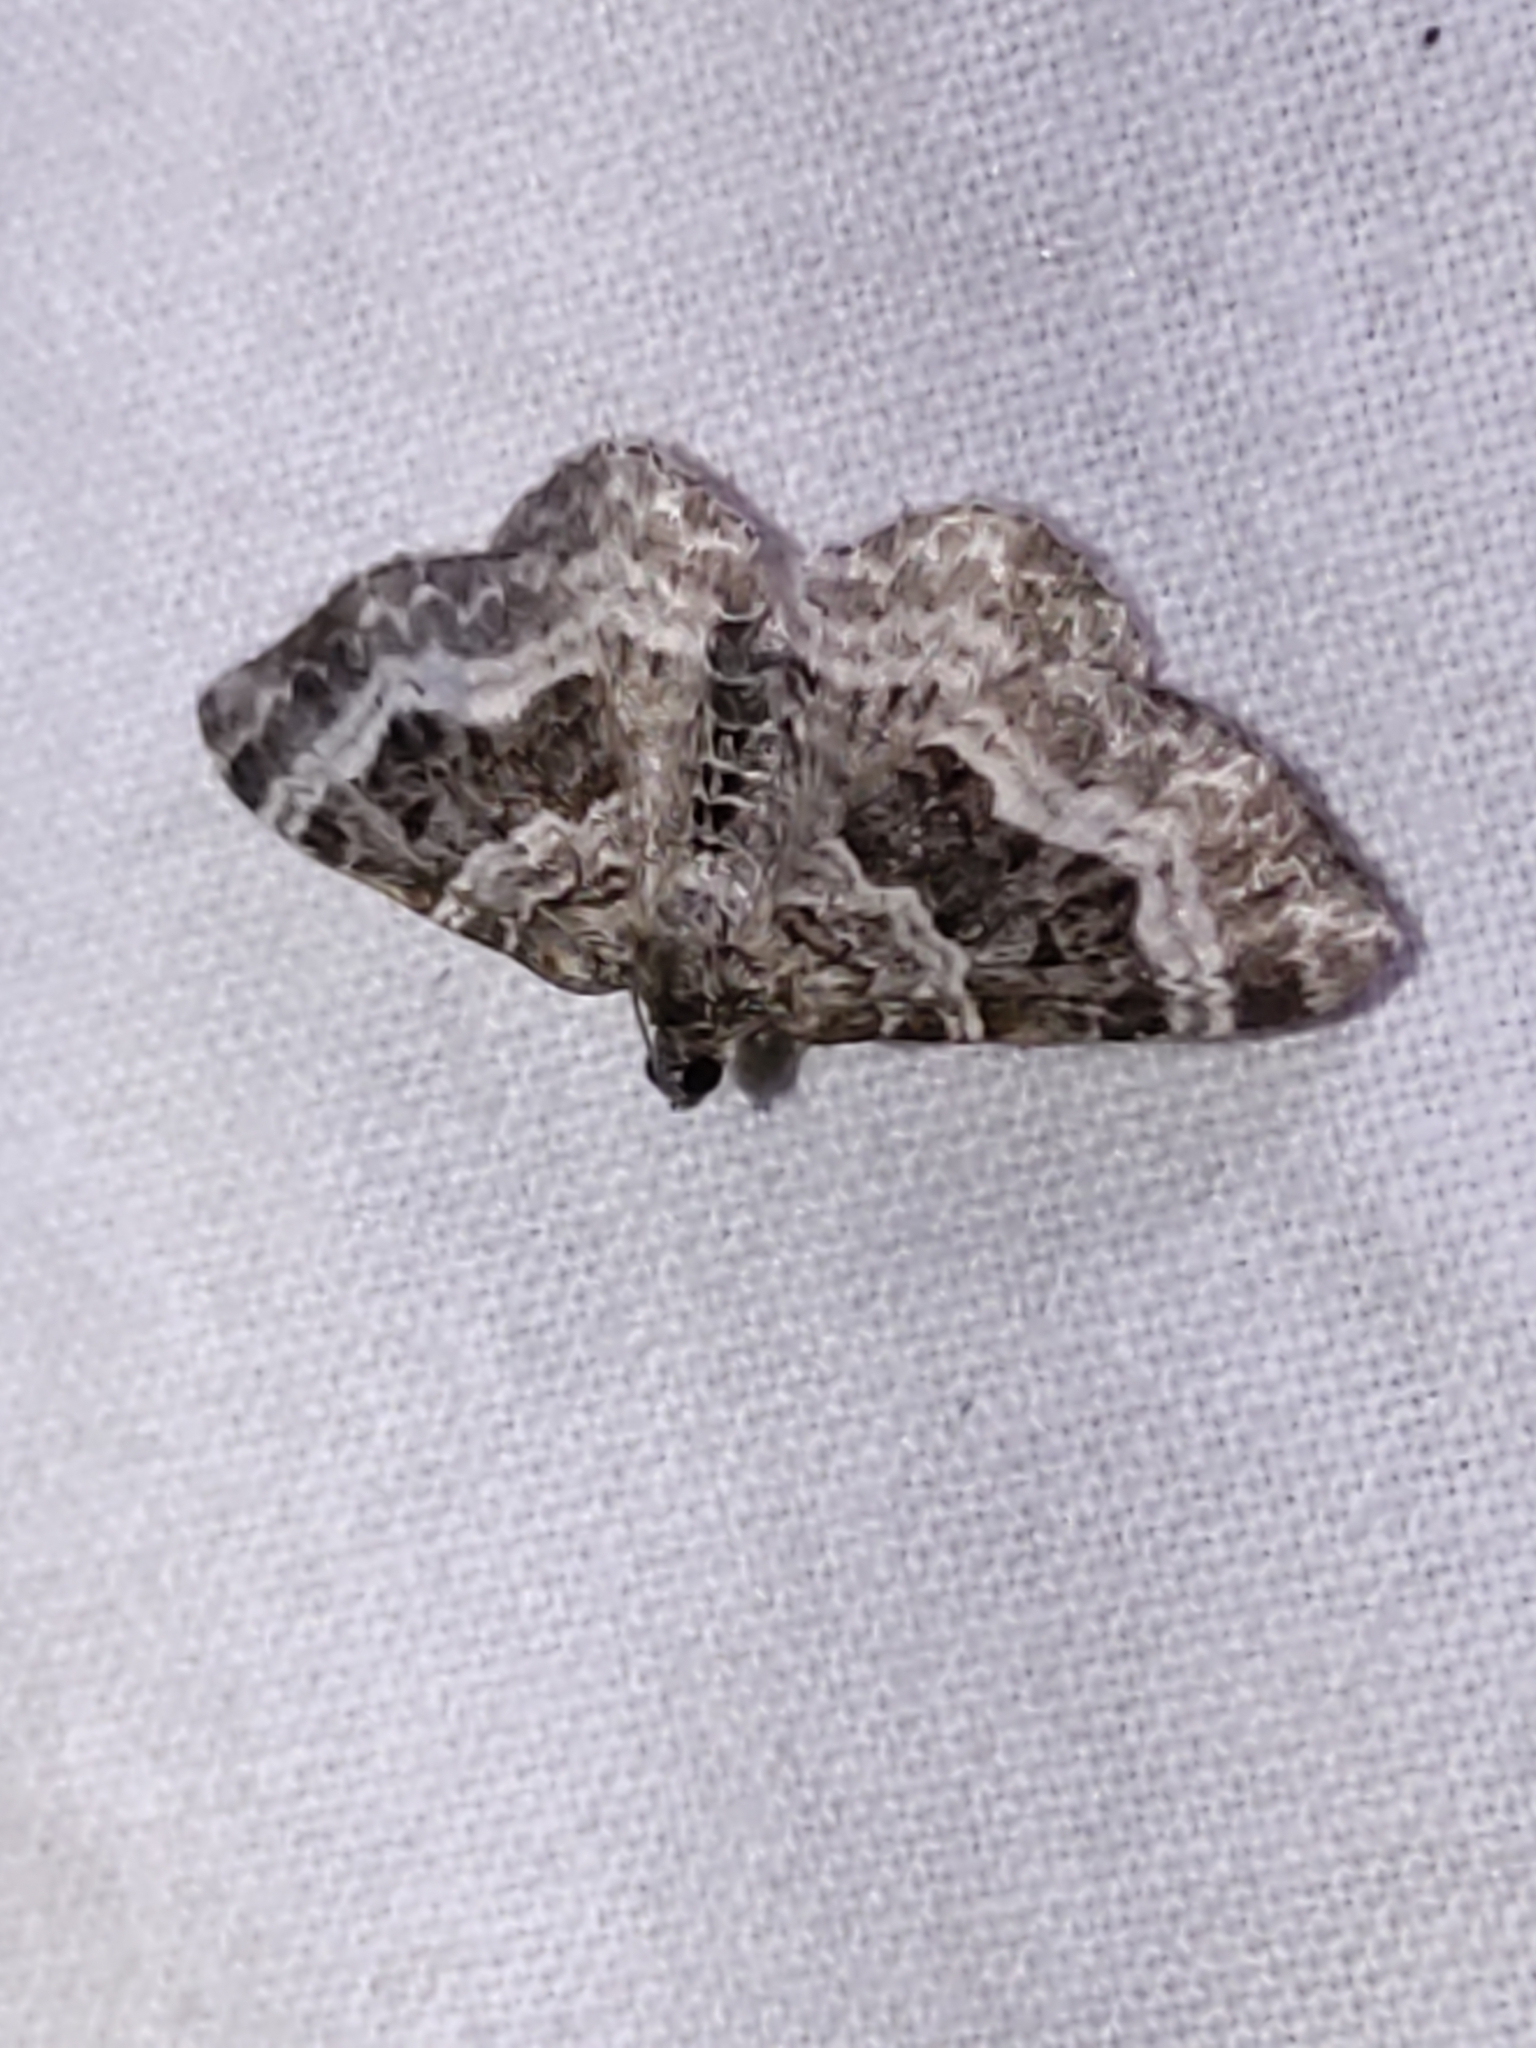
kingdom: Animalia
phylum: Arthropoda
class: Insecta
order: Lepidoptera
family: Geometridae
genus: Epirrhoe
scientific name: Epirrhoe alternata
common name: Common carpet
